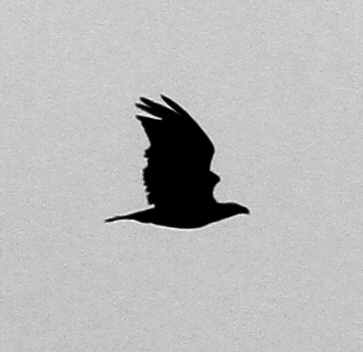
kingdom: Animalia
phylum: Chordata
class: Aves
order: Accipitriformes
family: Accipitridae
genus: Haliaeetus
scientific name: Haliaeetus leucocephalus
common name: Bald eagle
